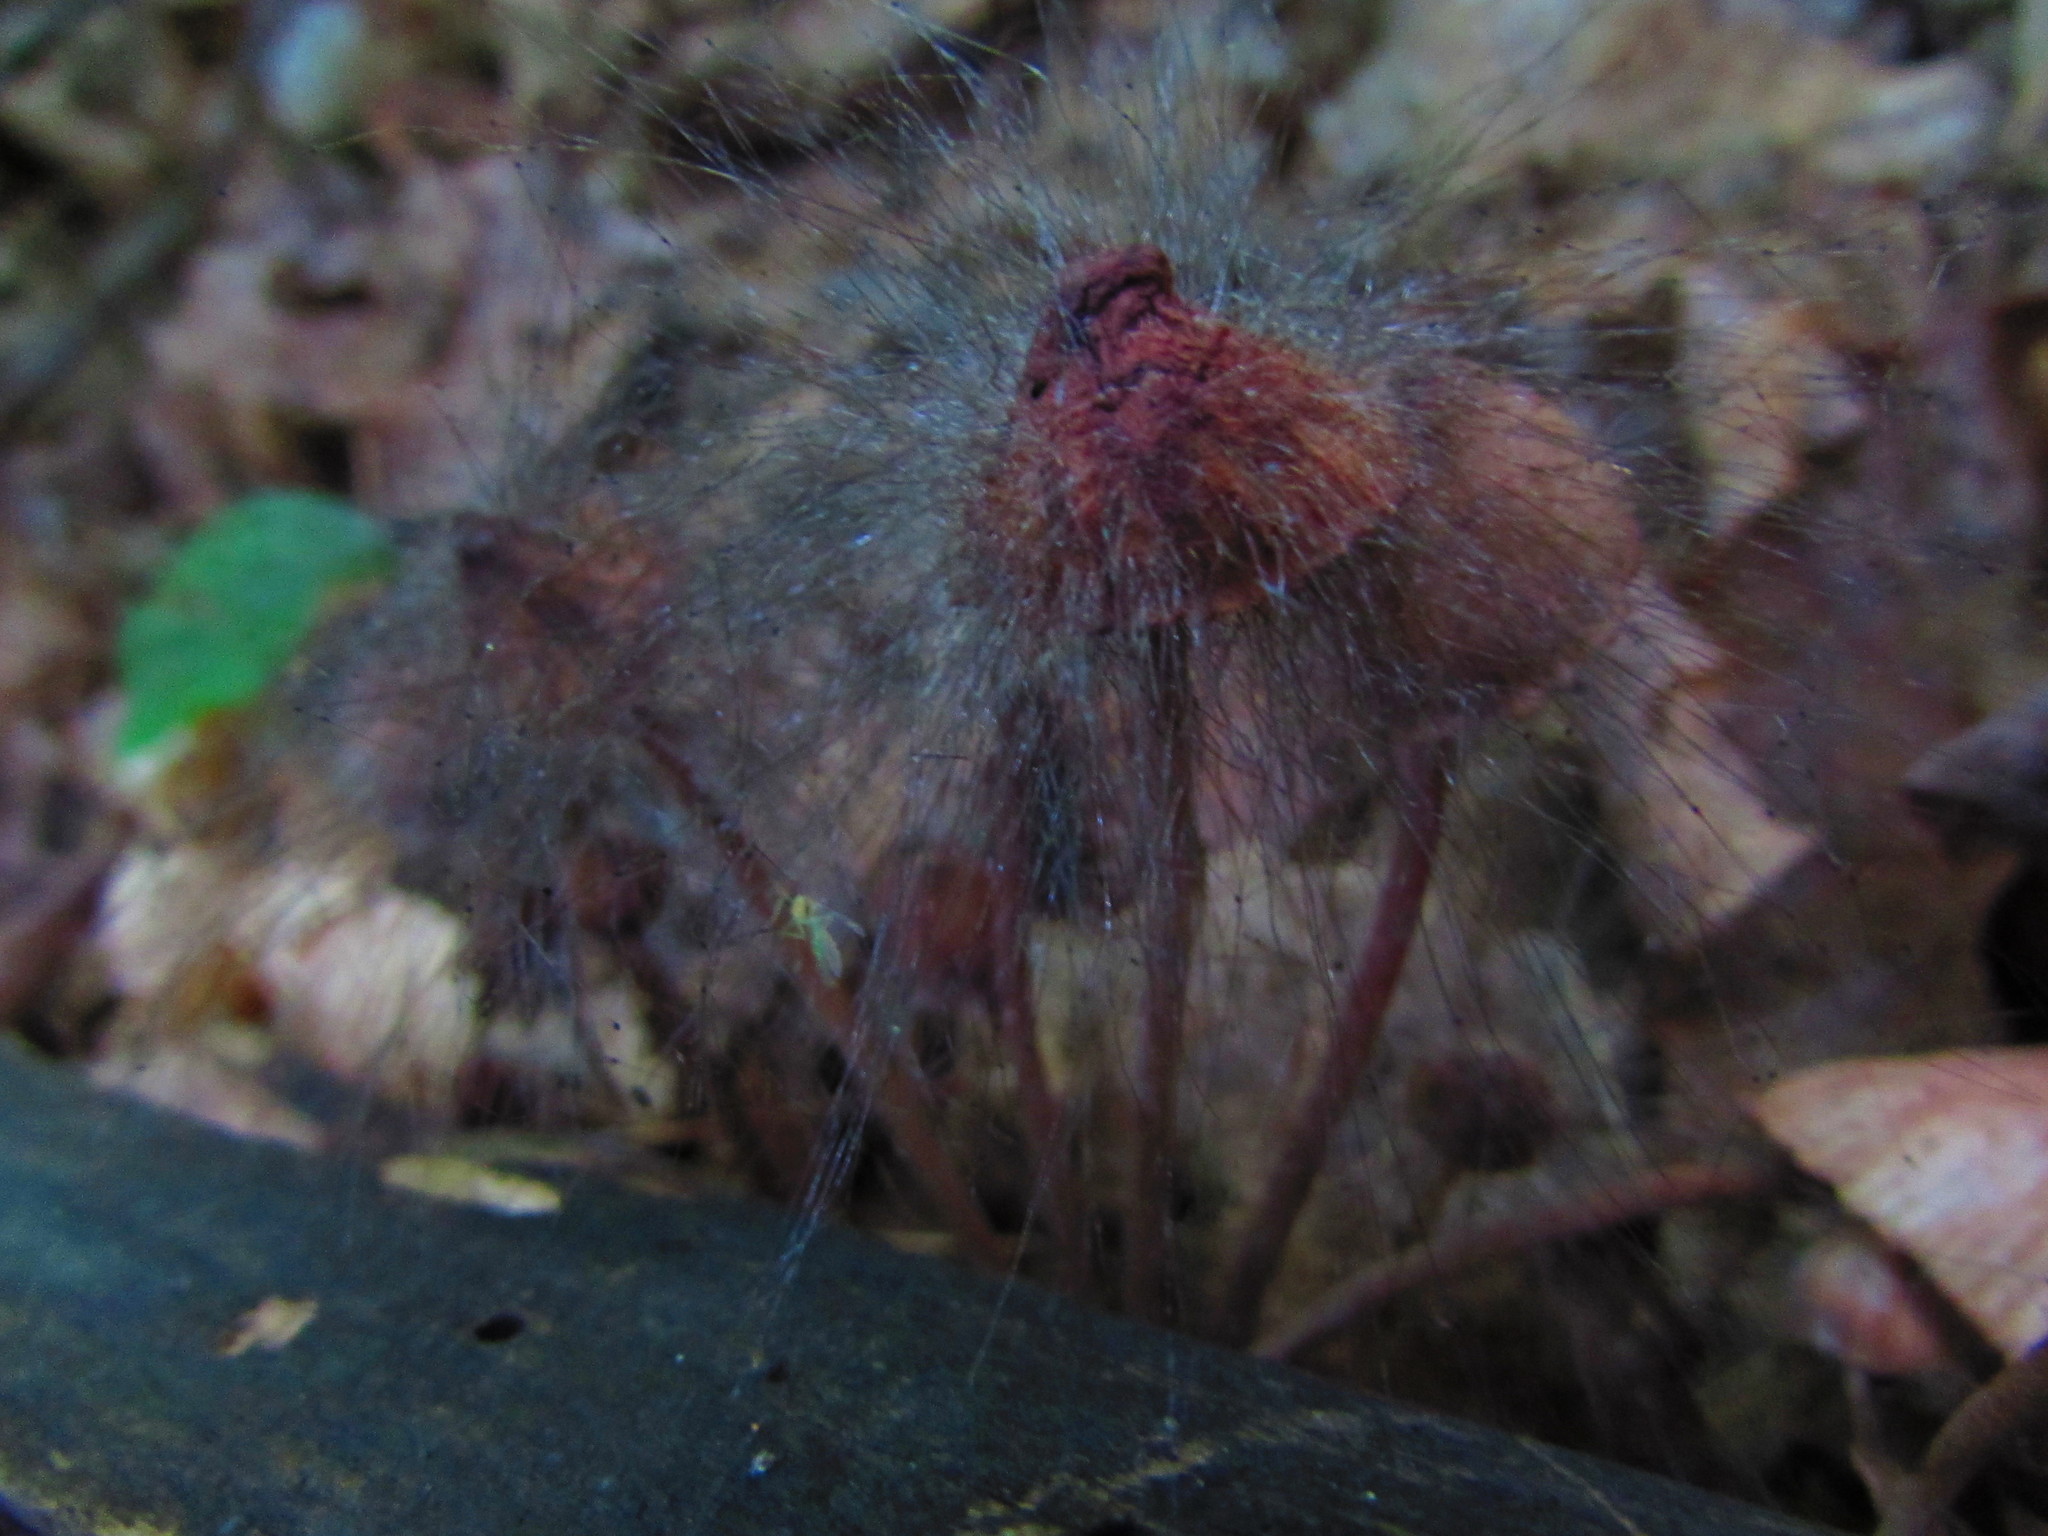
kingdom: Fungi
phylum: Mucoromycota
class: Mucoromycetes
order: Mucorales
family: Phycomycetaceae
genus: Spinellus
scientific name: Spinellus fusiger
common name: Bonnet mould
